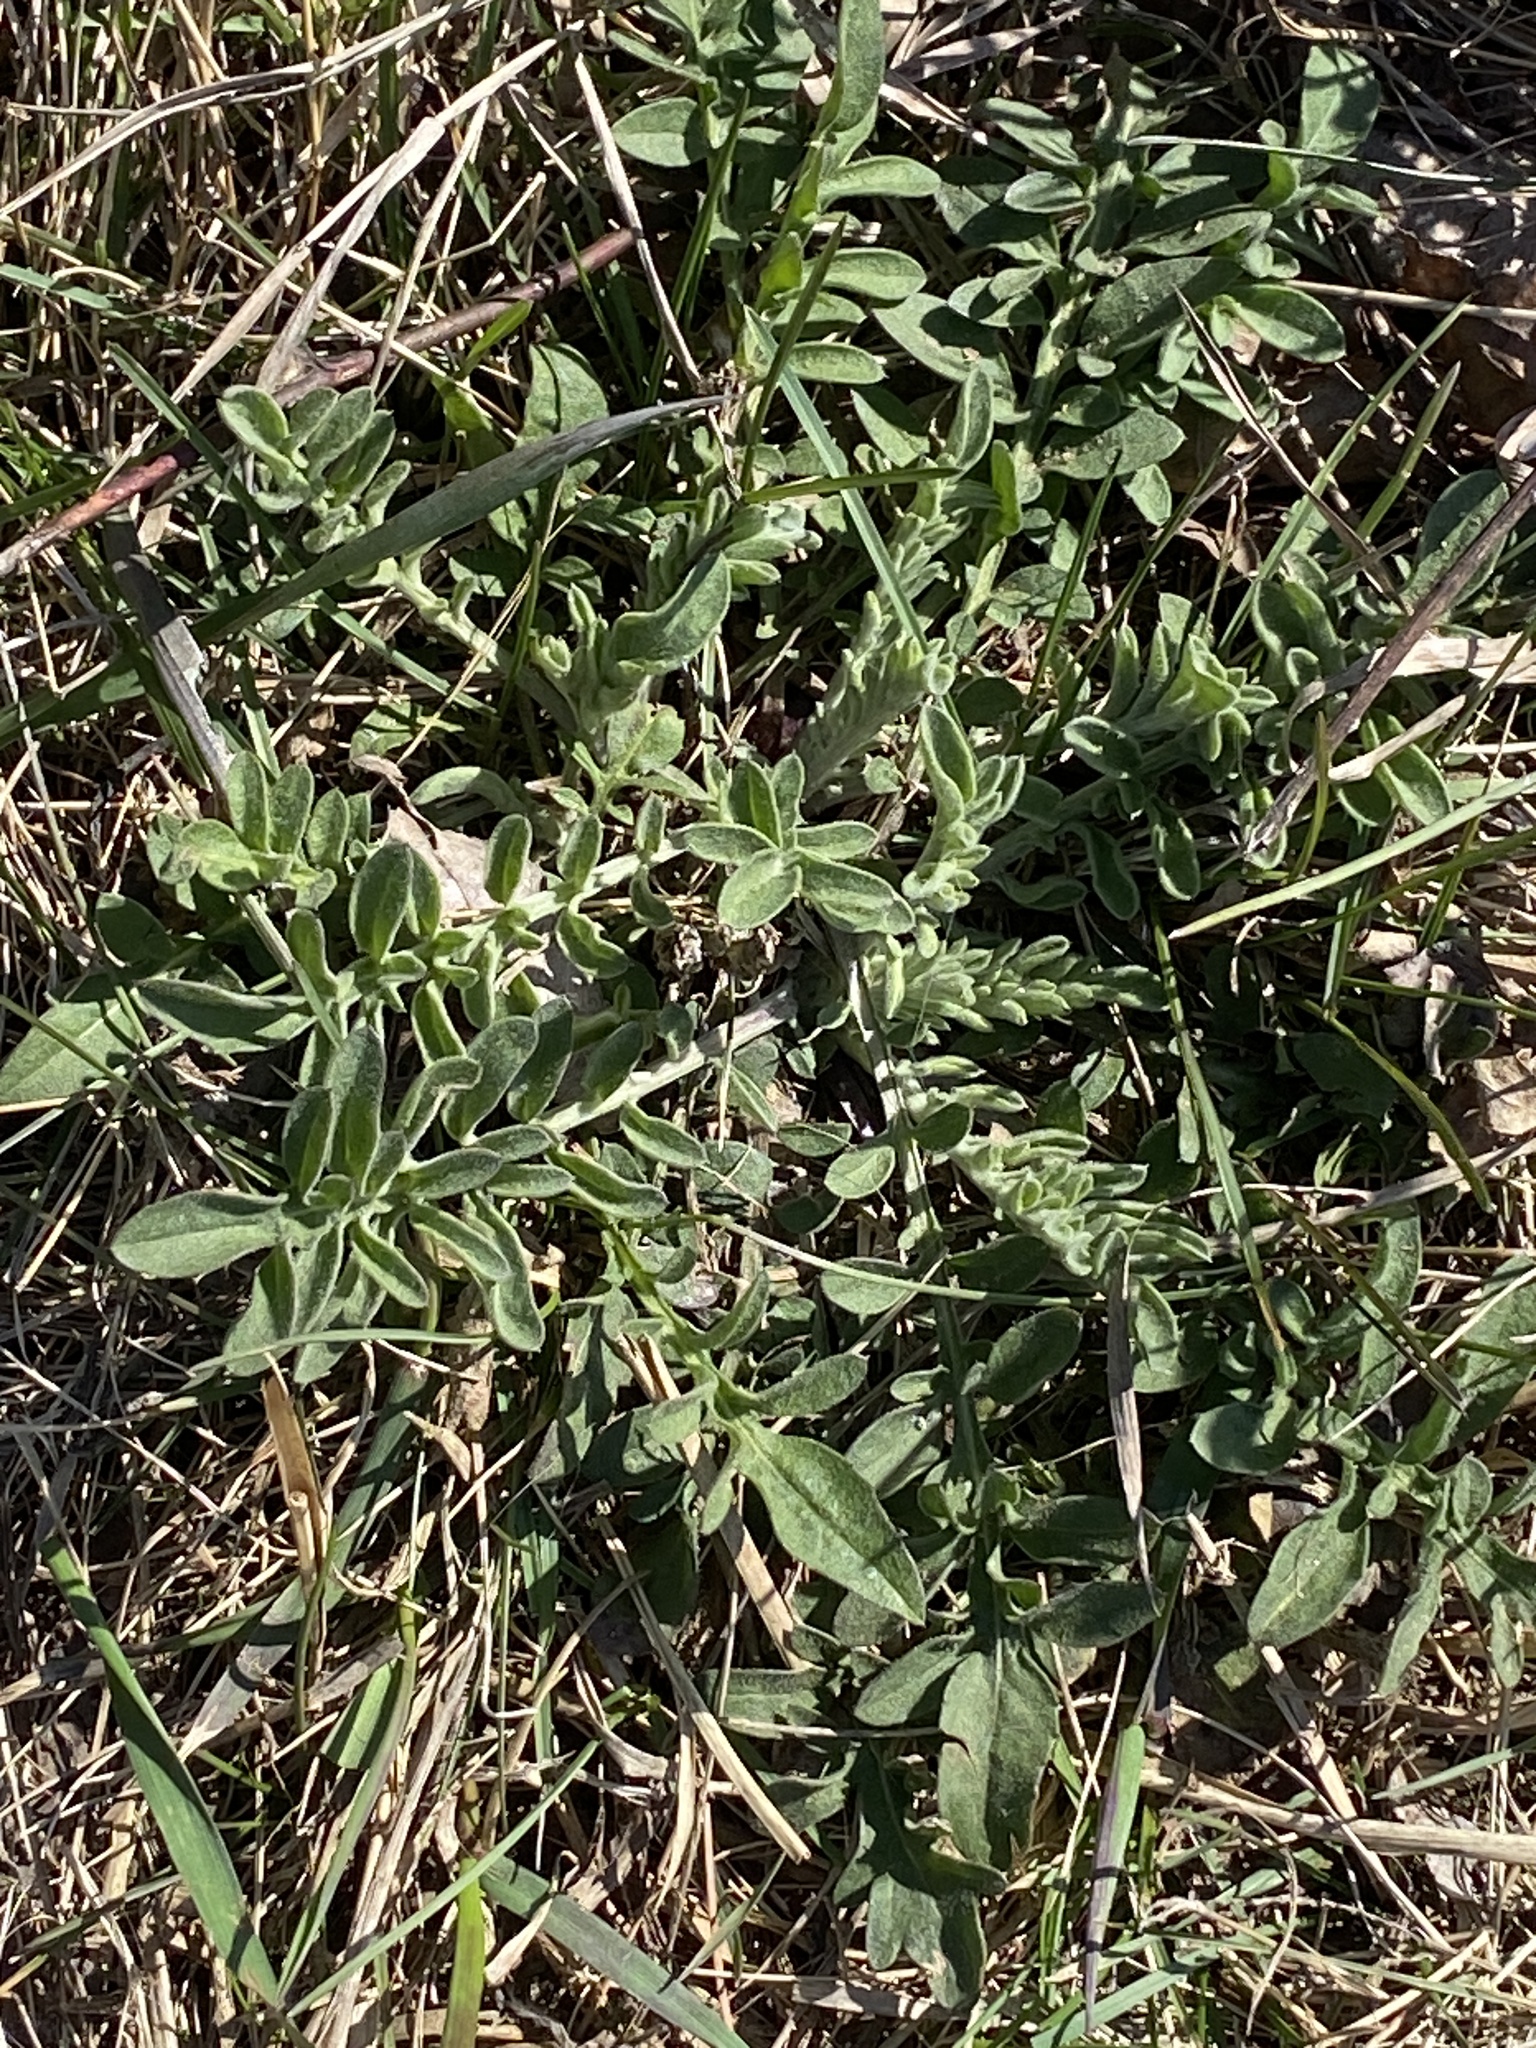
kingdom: Plantae
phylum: Tracheophyta
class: Magnoliopsida
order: Asterales
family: Asteraceae
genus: Centaurea
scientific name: Centaurea stoebe
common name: Spotted knapweed
